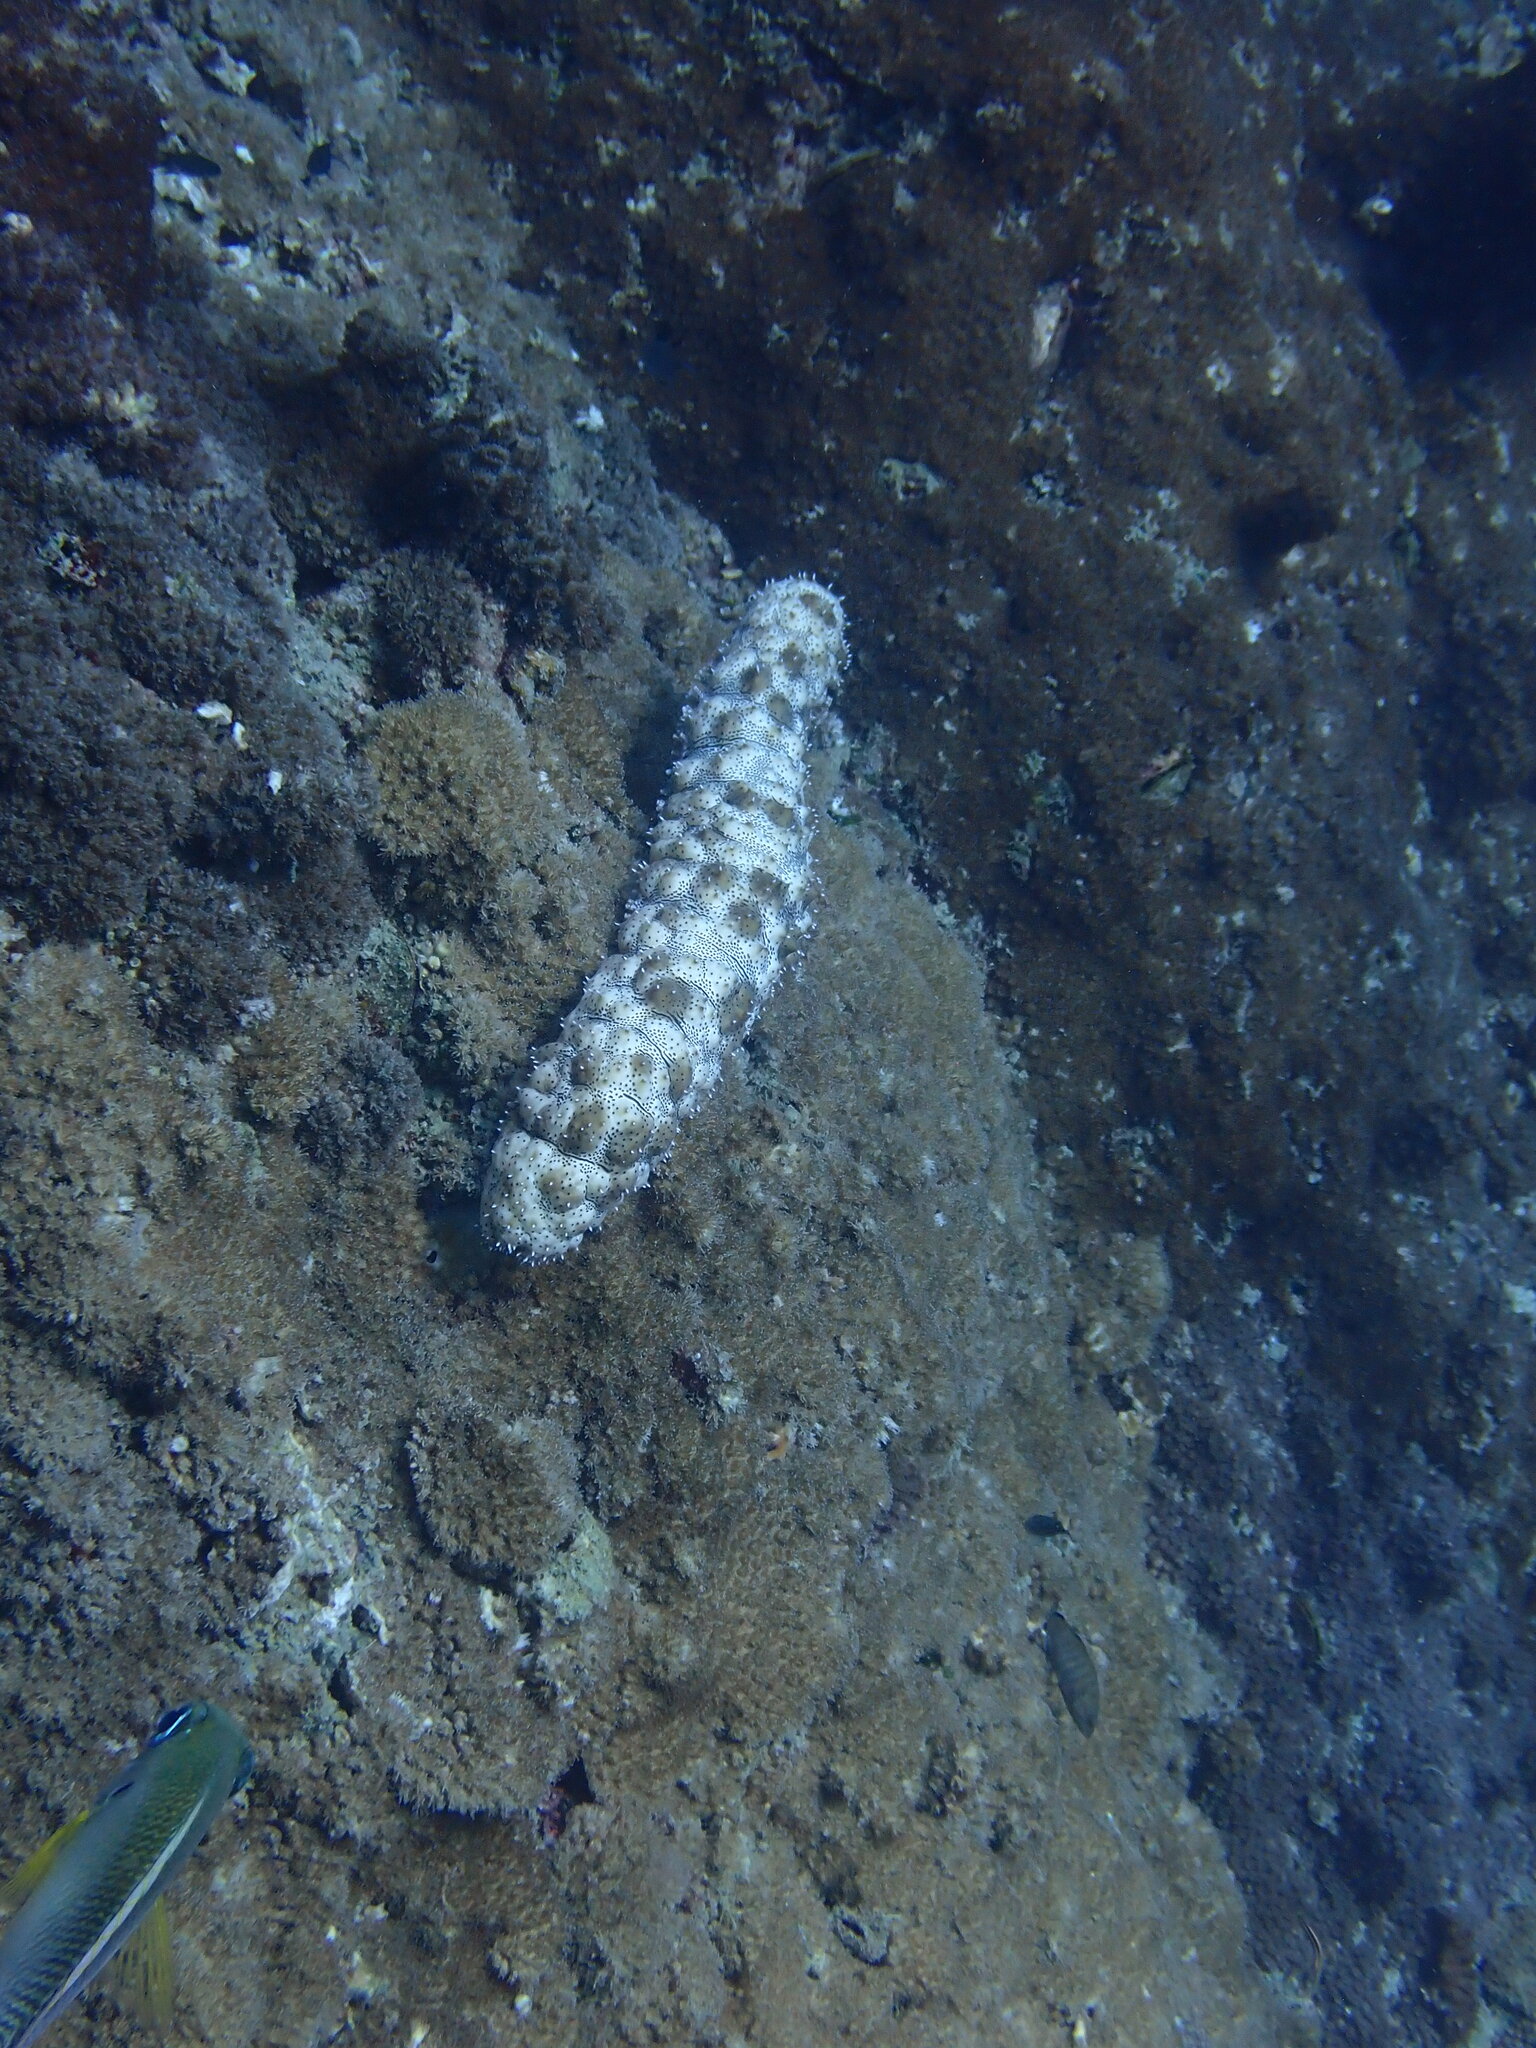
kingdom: Animalia
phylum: Echinodermata
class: Holothuroidea
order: Holothuriida
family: Holothuriidae
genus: Pearsonothuria
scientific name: Pearsonothuria graeffei
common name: Blackspotted sea cucumber
